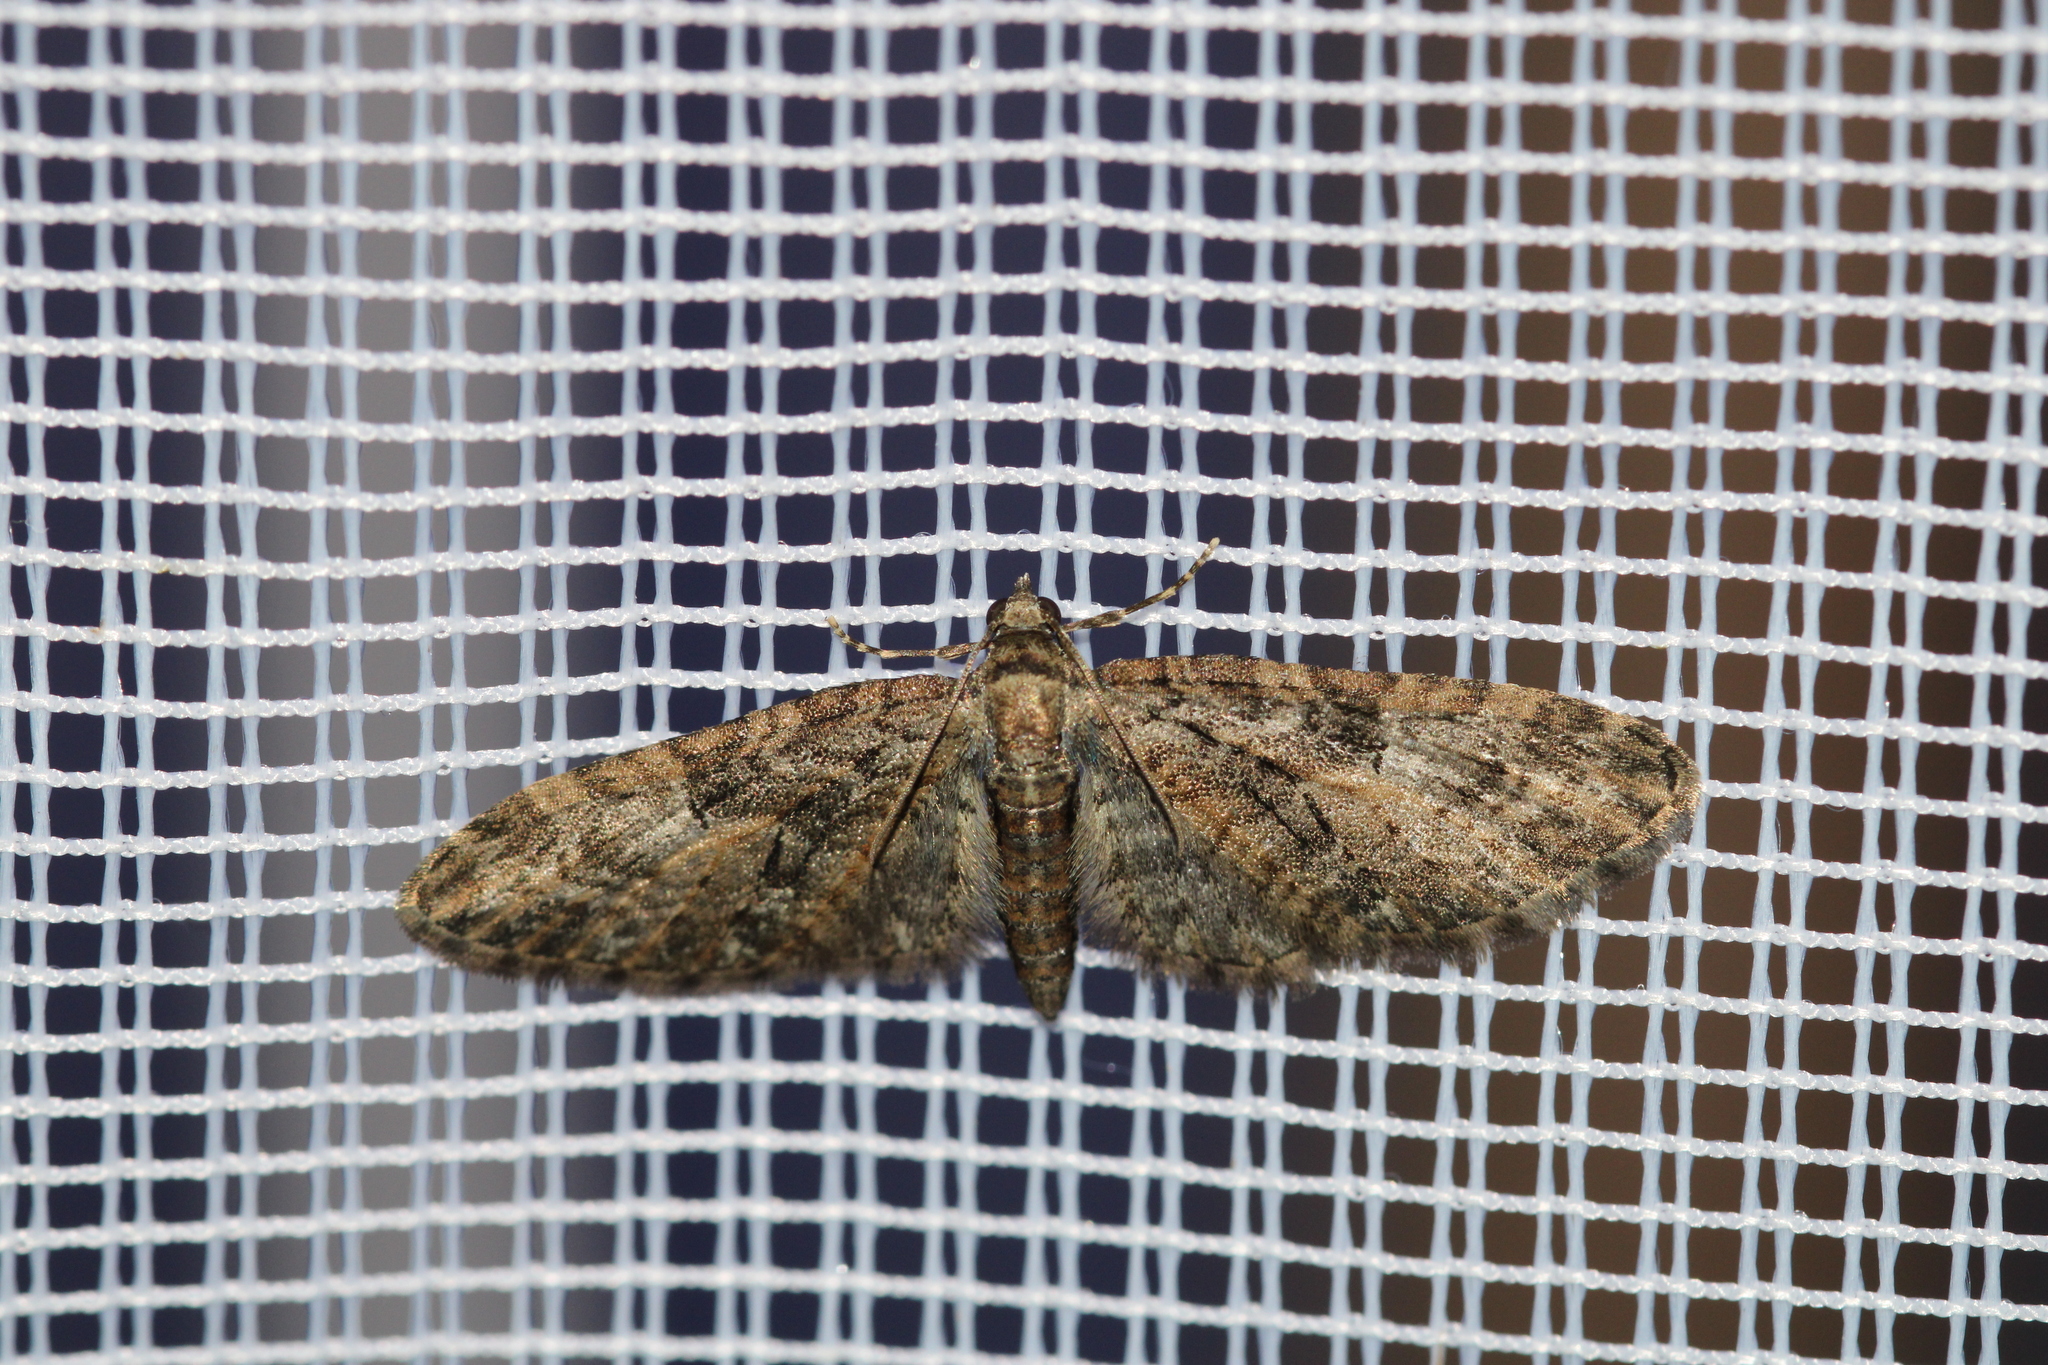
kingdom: Animalia
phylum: Arthropoda
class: Insecta
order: Lepidoptera
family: Geometridae
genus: Eupithecia
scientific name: Eupithecia abbreviata
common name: Brindled pug
